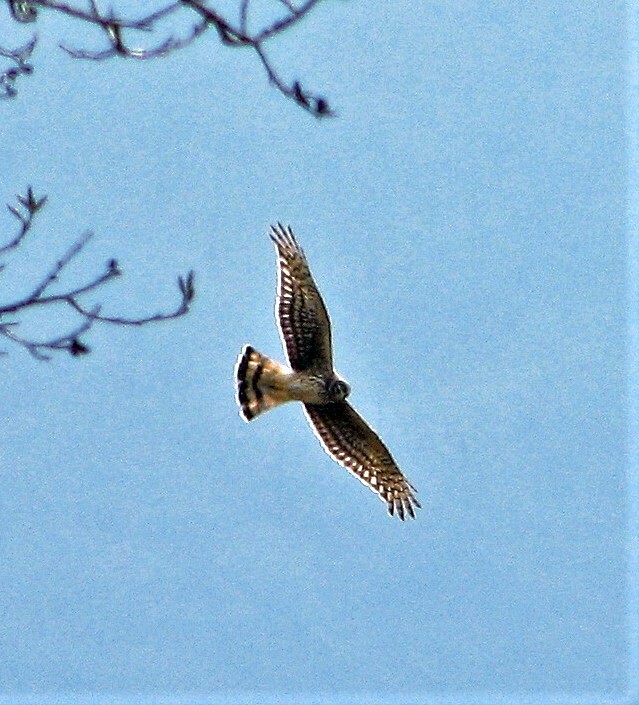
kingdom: Animalia
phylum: Chordata
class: Aves
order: Accipitriformes
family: Accipitridae
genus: Circus
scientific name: Circus cinereus
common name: Cinereous harrier
